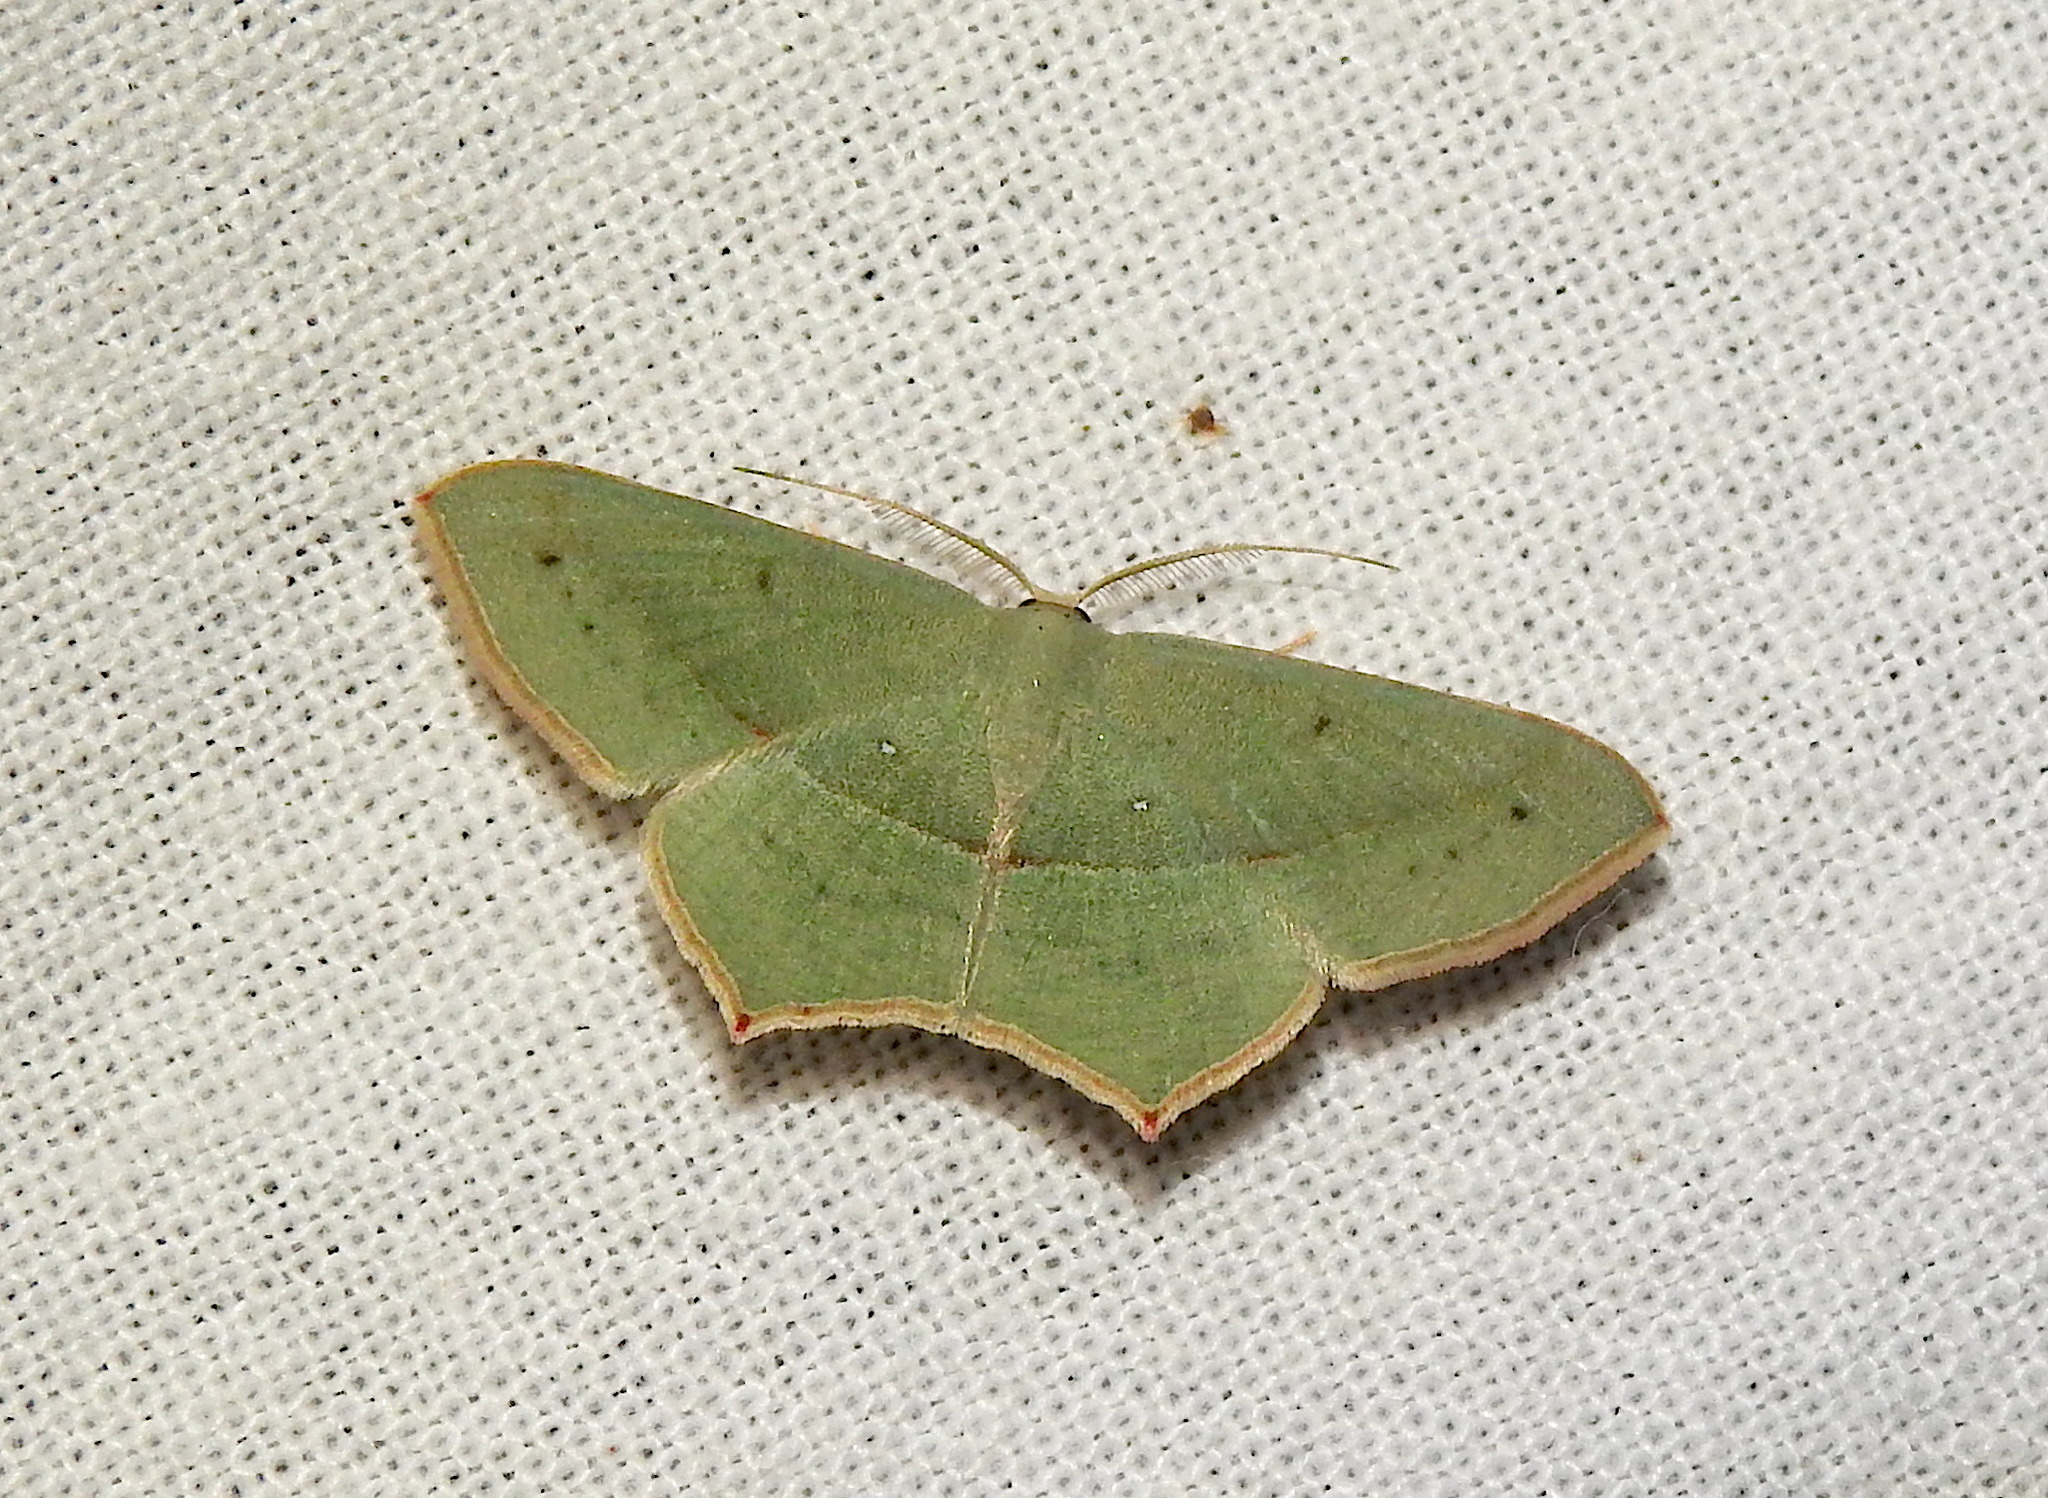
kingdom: Animalia
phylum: Arthropoda
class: Insecta
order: Lepidoptera
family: Geometridae
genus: Traminda
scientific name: Traminda mundissima
